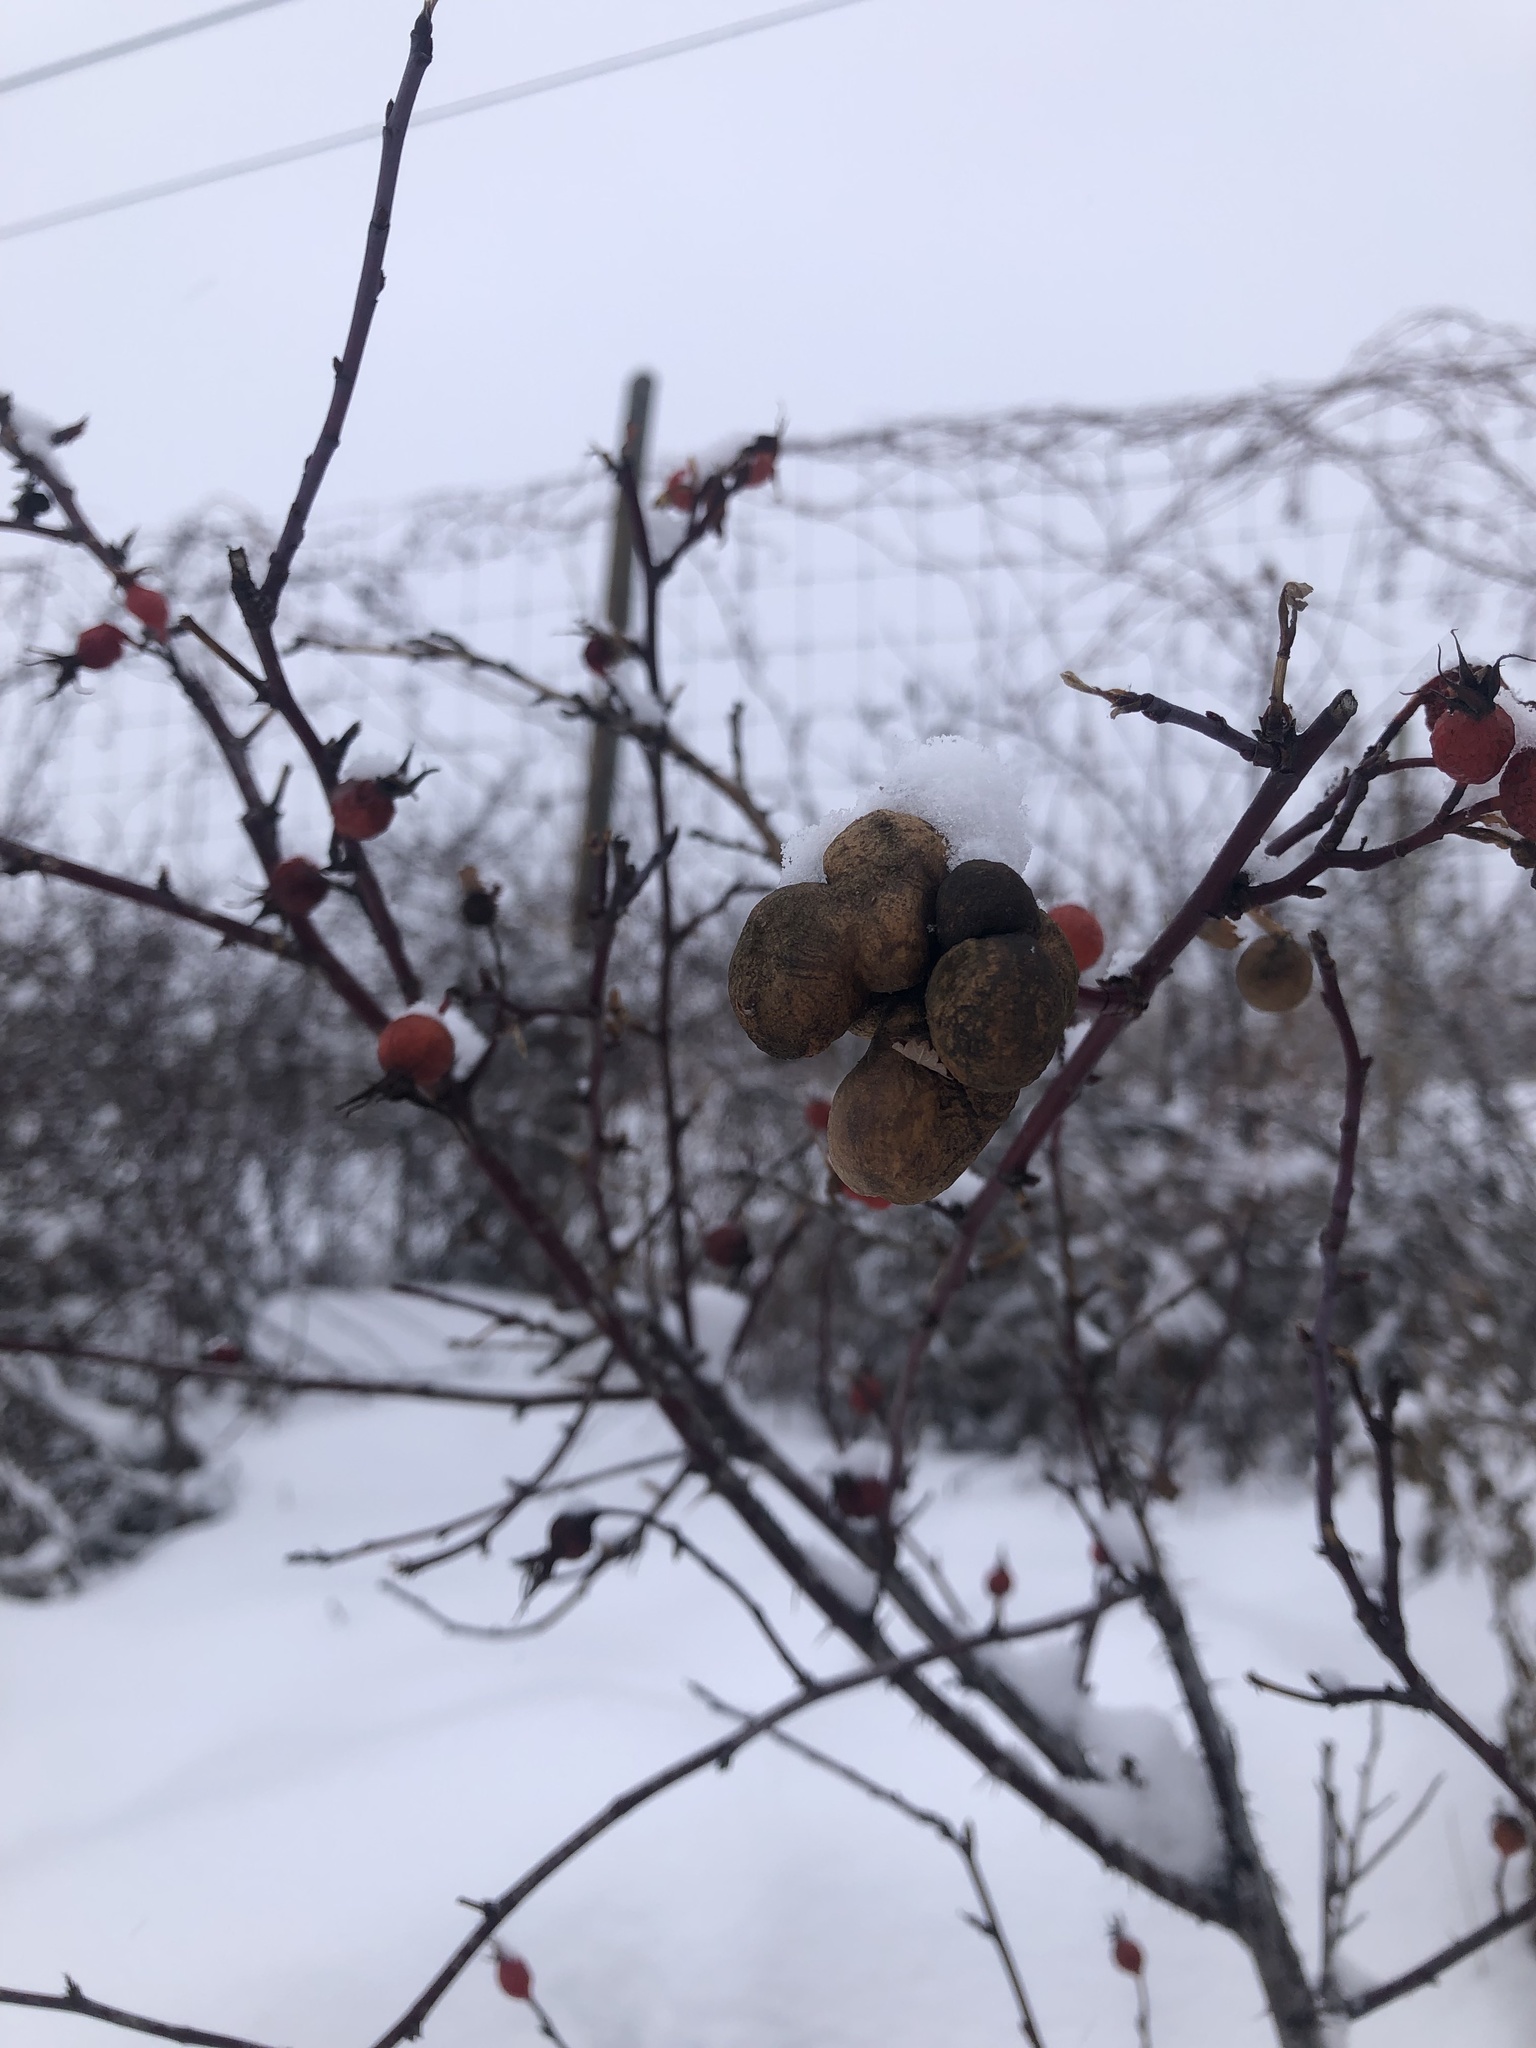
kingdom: Animalia
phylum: Arthropoda
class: Insecta
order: Hymenoptera
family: Cynipidae
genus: Diplolepis
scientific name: Diplolepis variabilis
